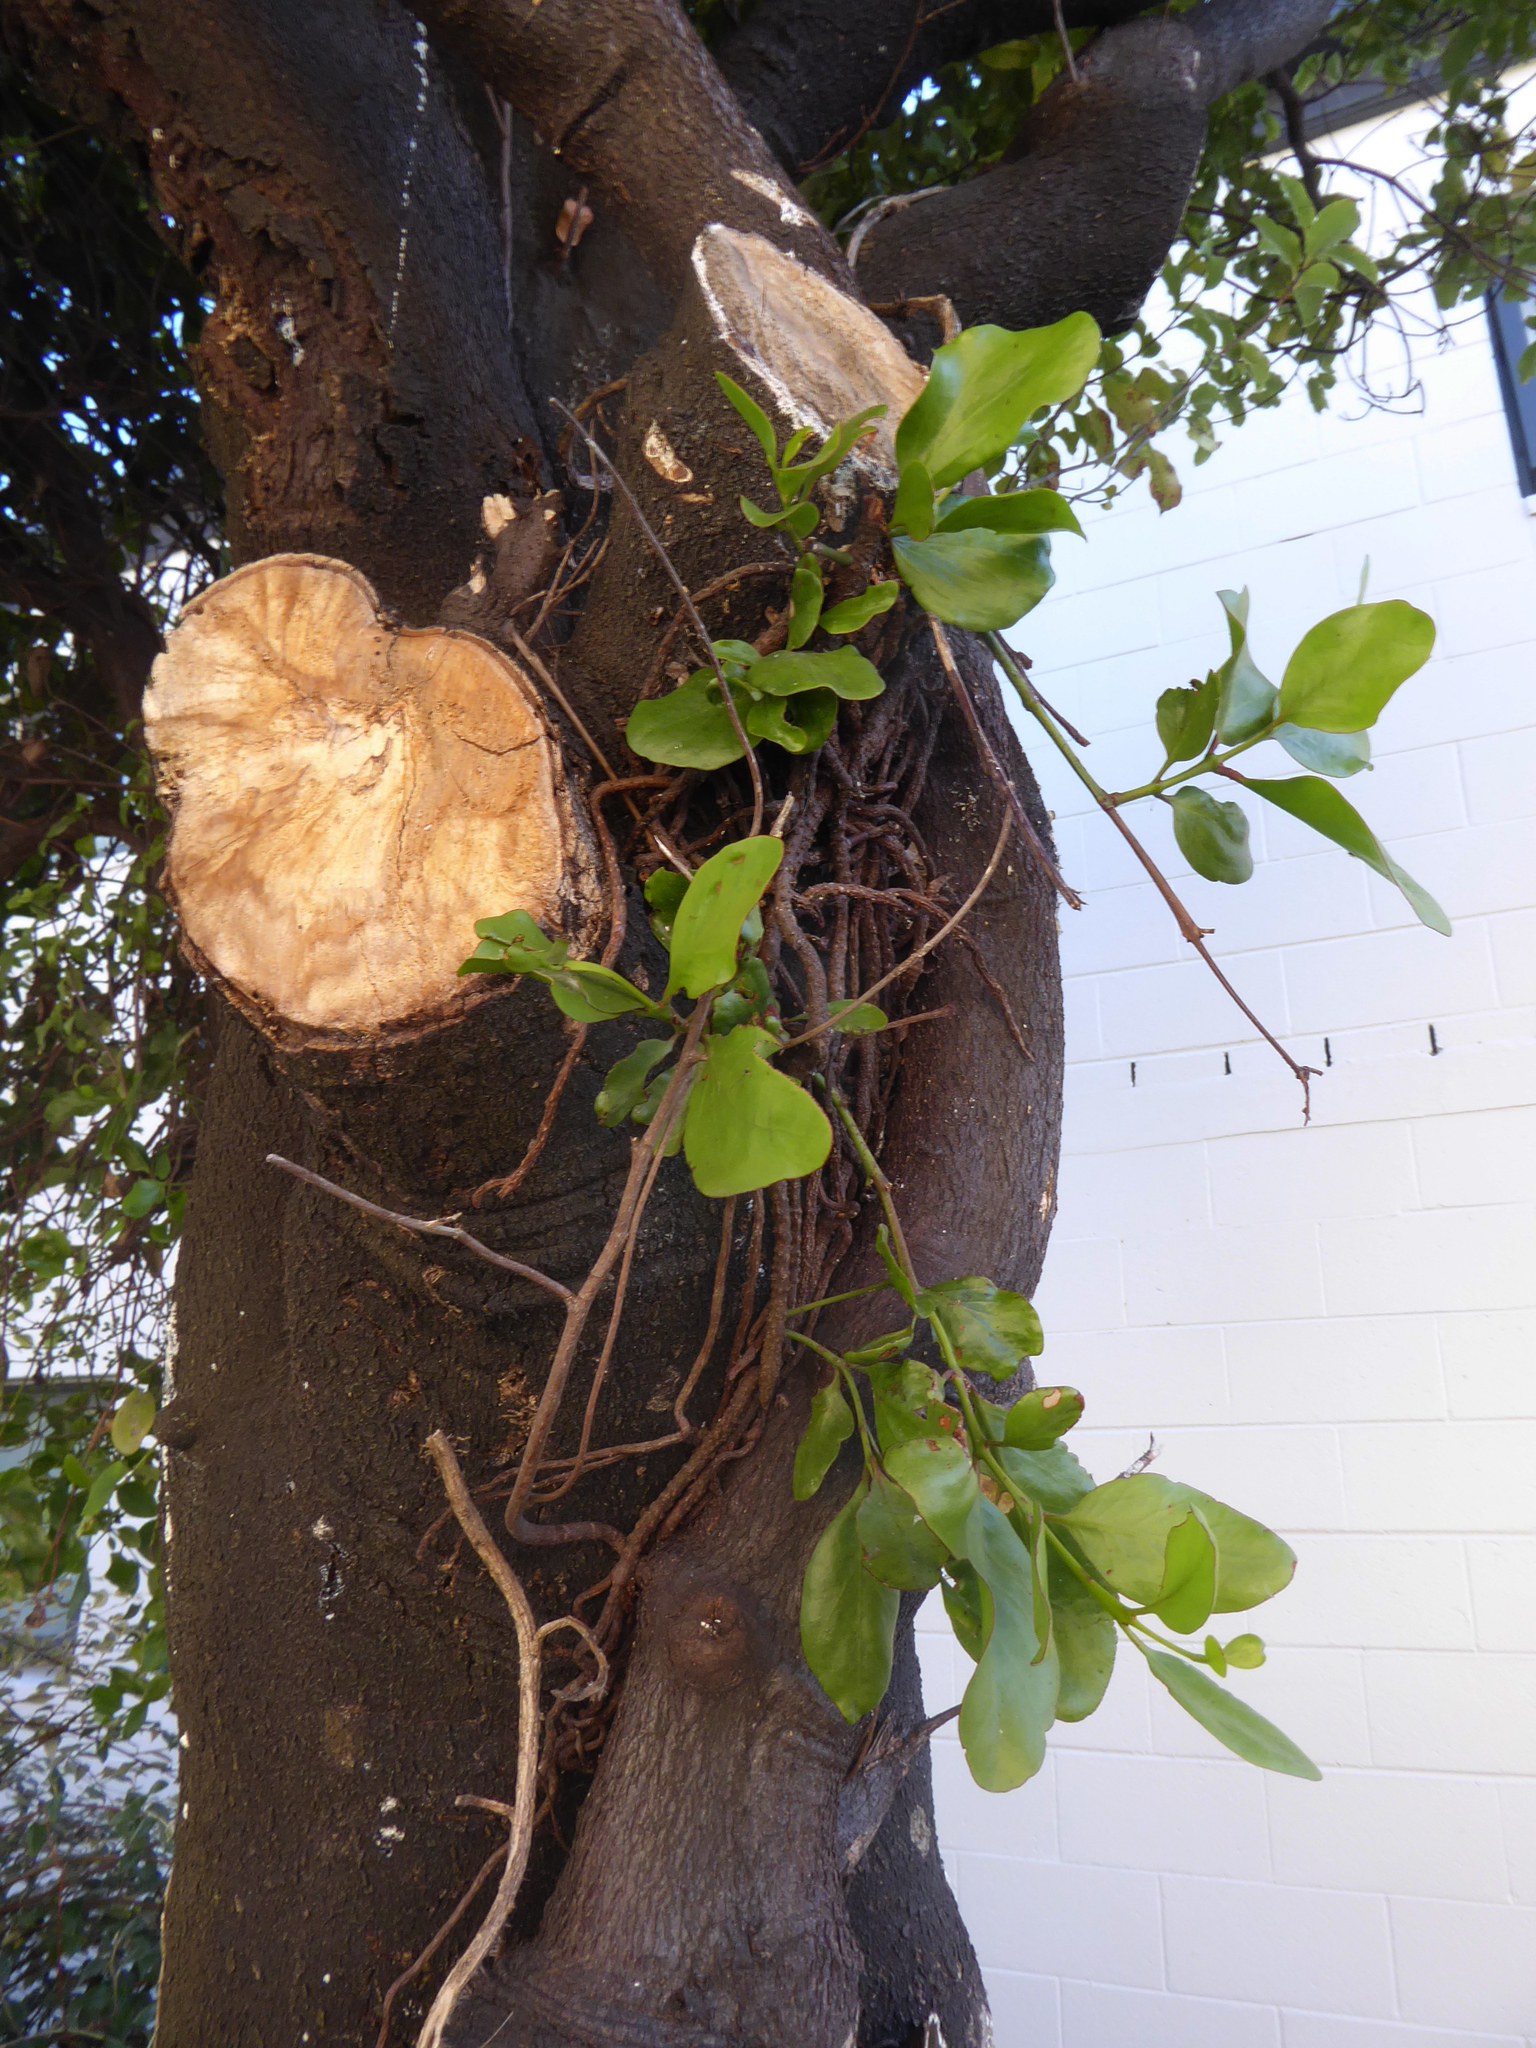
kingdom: Plantae
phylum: Tracheophyta
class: Magnoliopsida
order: Santalales
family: Loranthaceae
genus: Ileostylus
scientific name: Ileostylus micranthus
